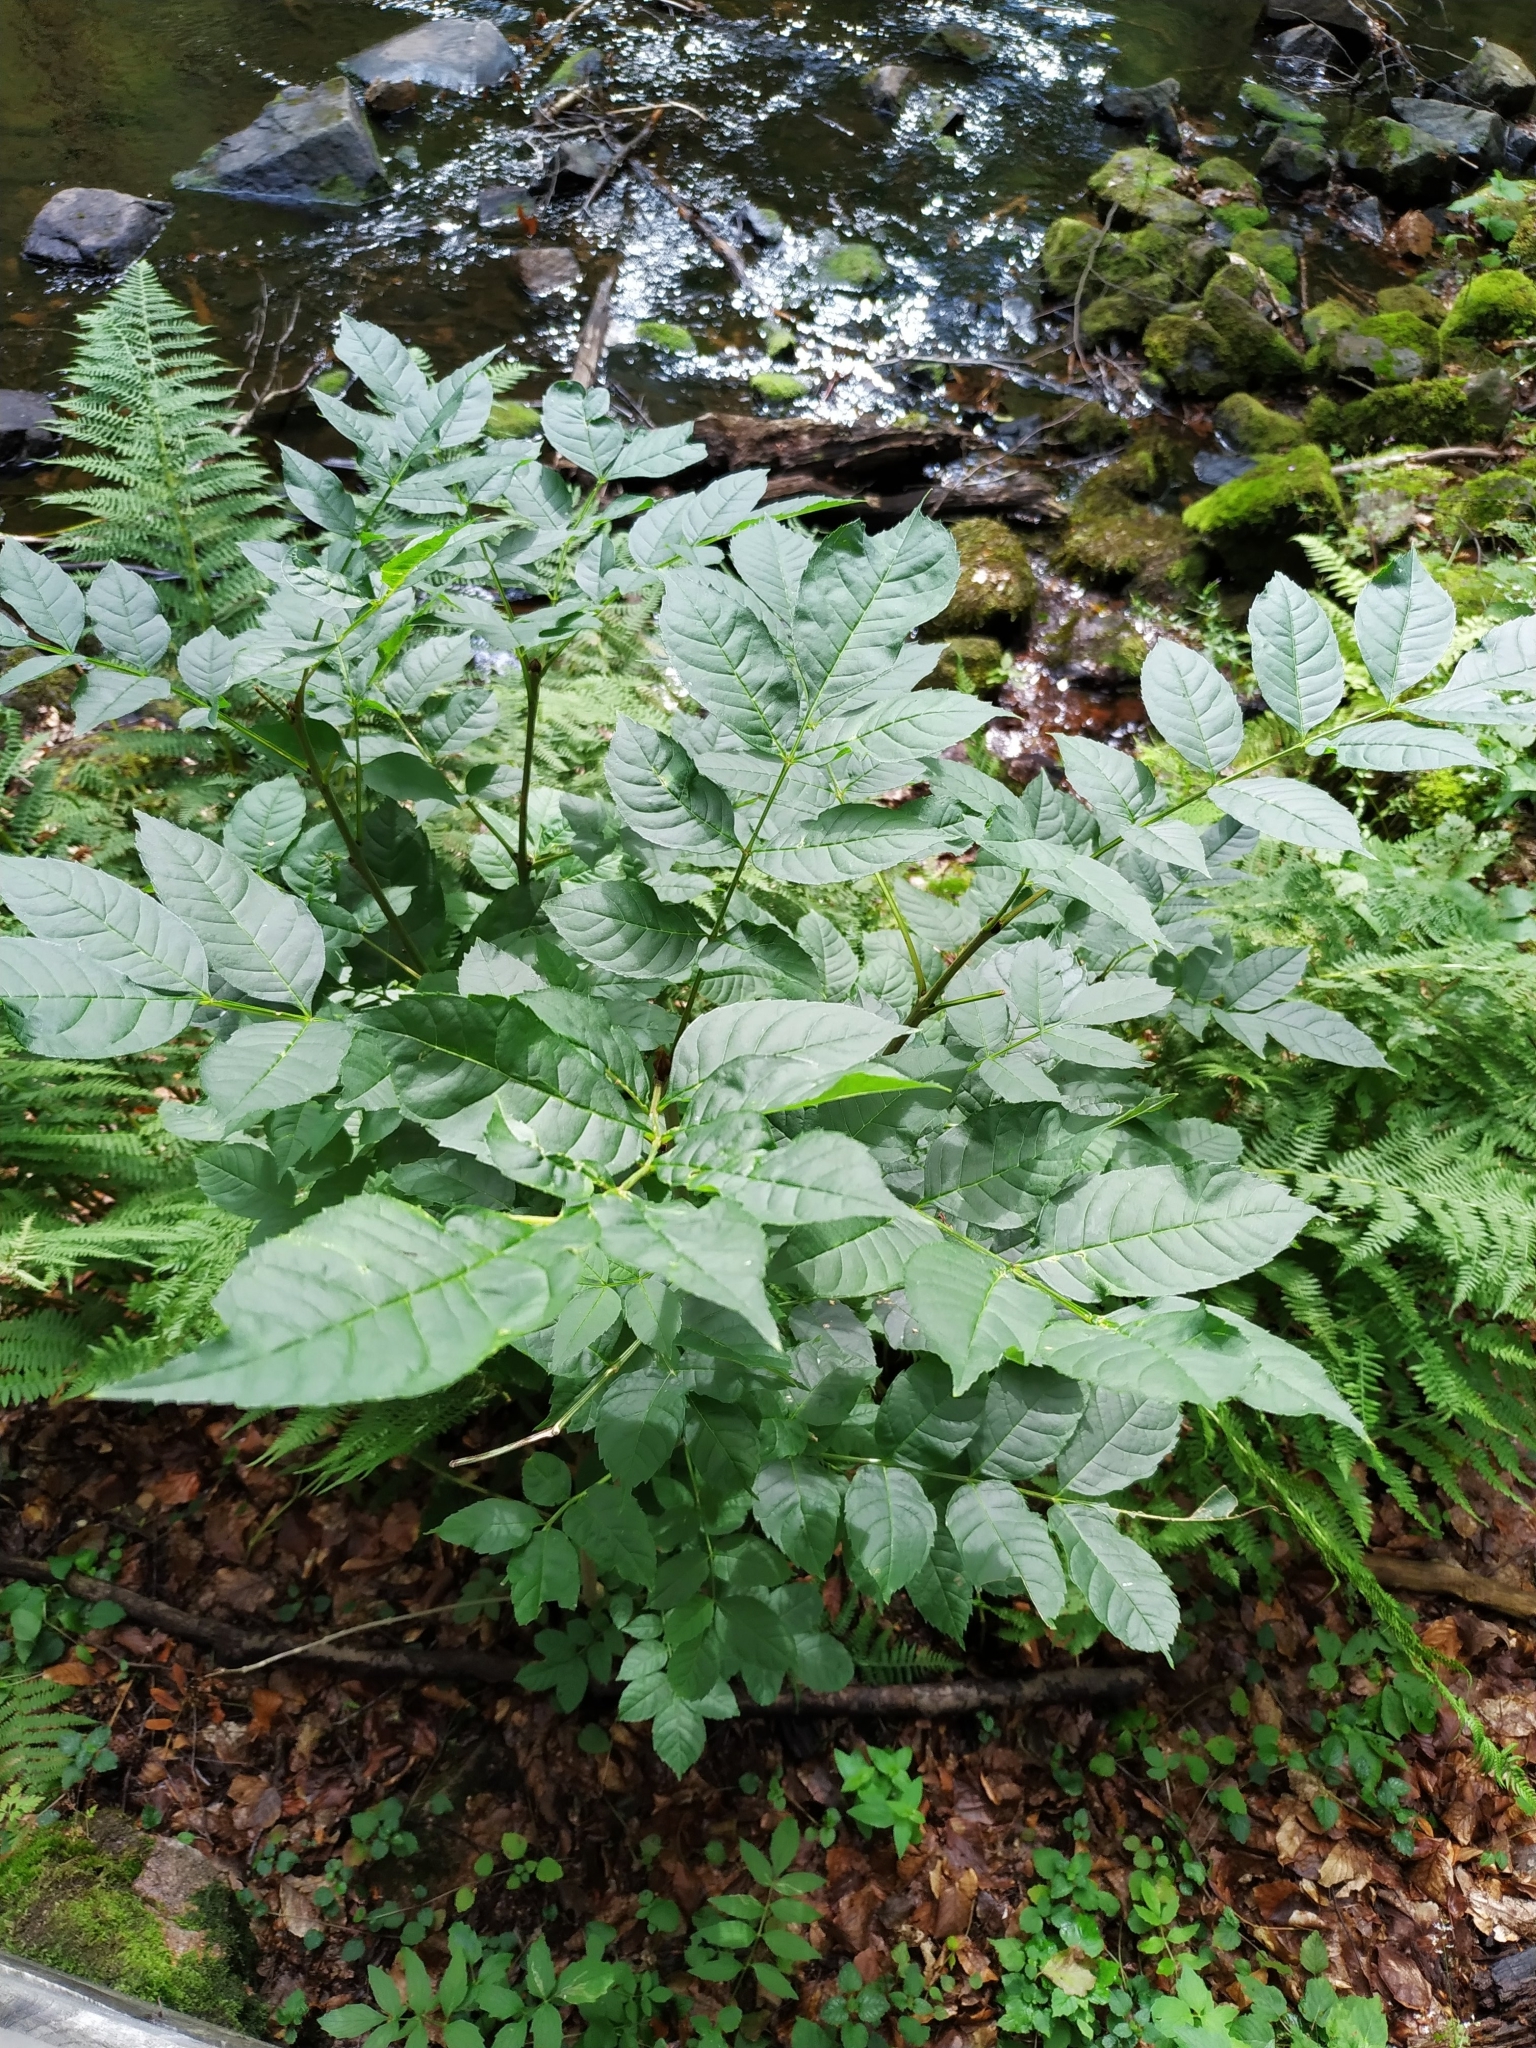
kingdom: Plantae
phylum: Tracheophyta
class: Magnoliopsida
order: Lamiales
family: Oleaceae
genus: Fraxinus
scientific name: Fraxinus excelsior
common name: European ash
